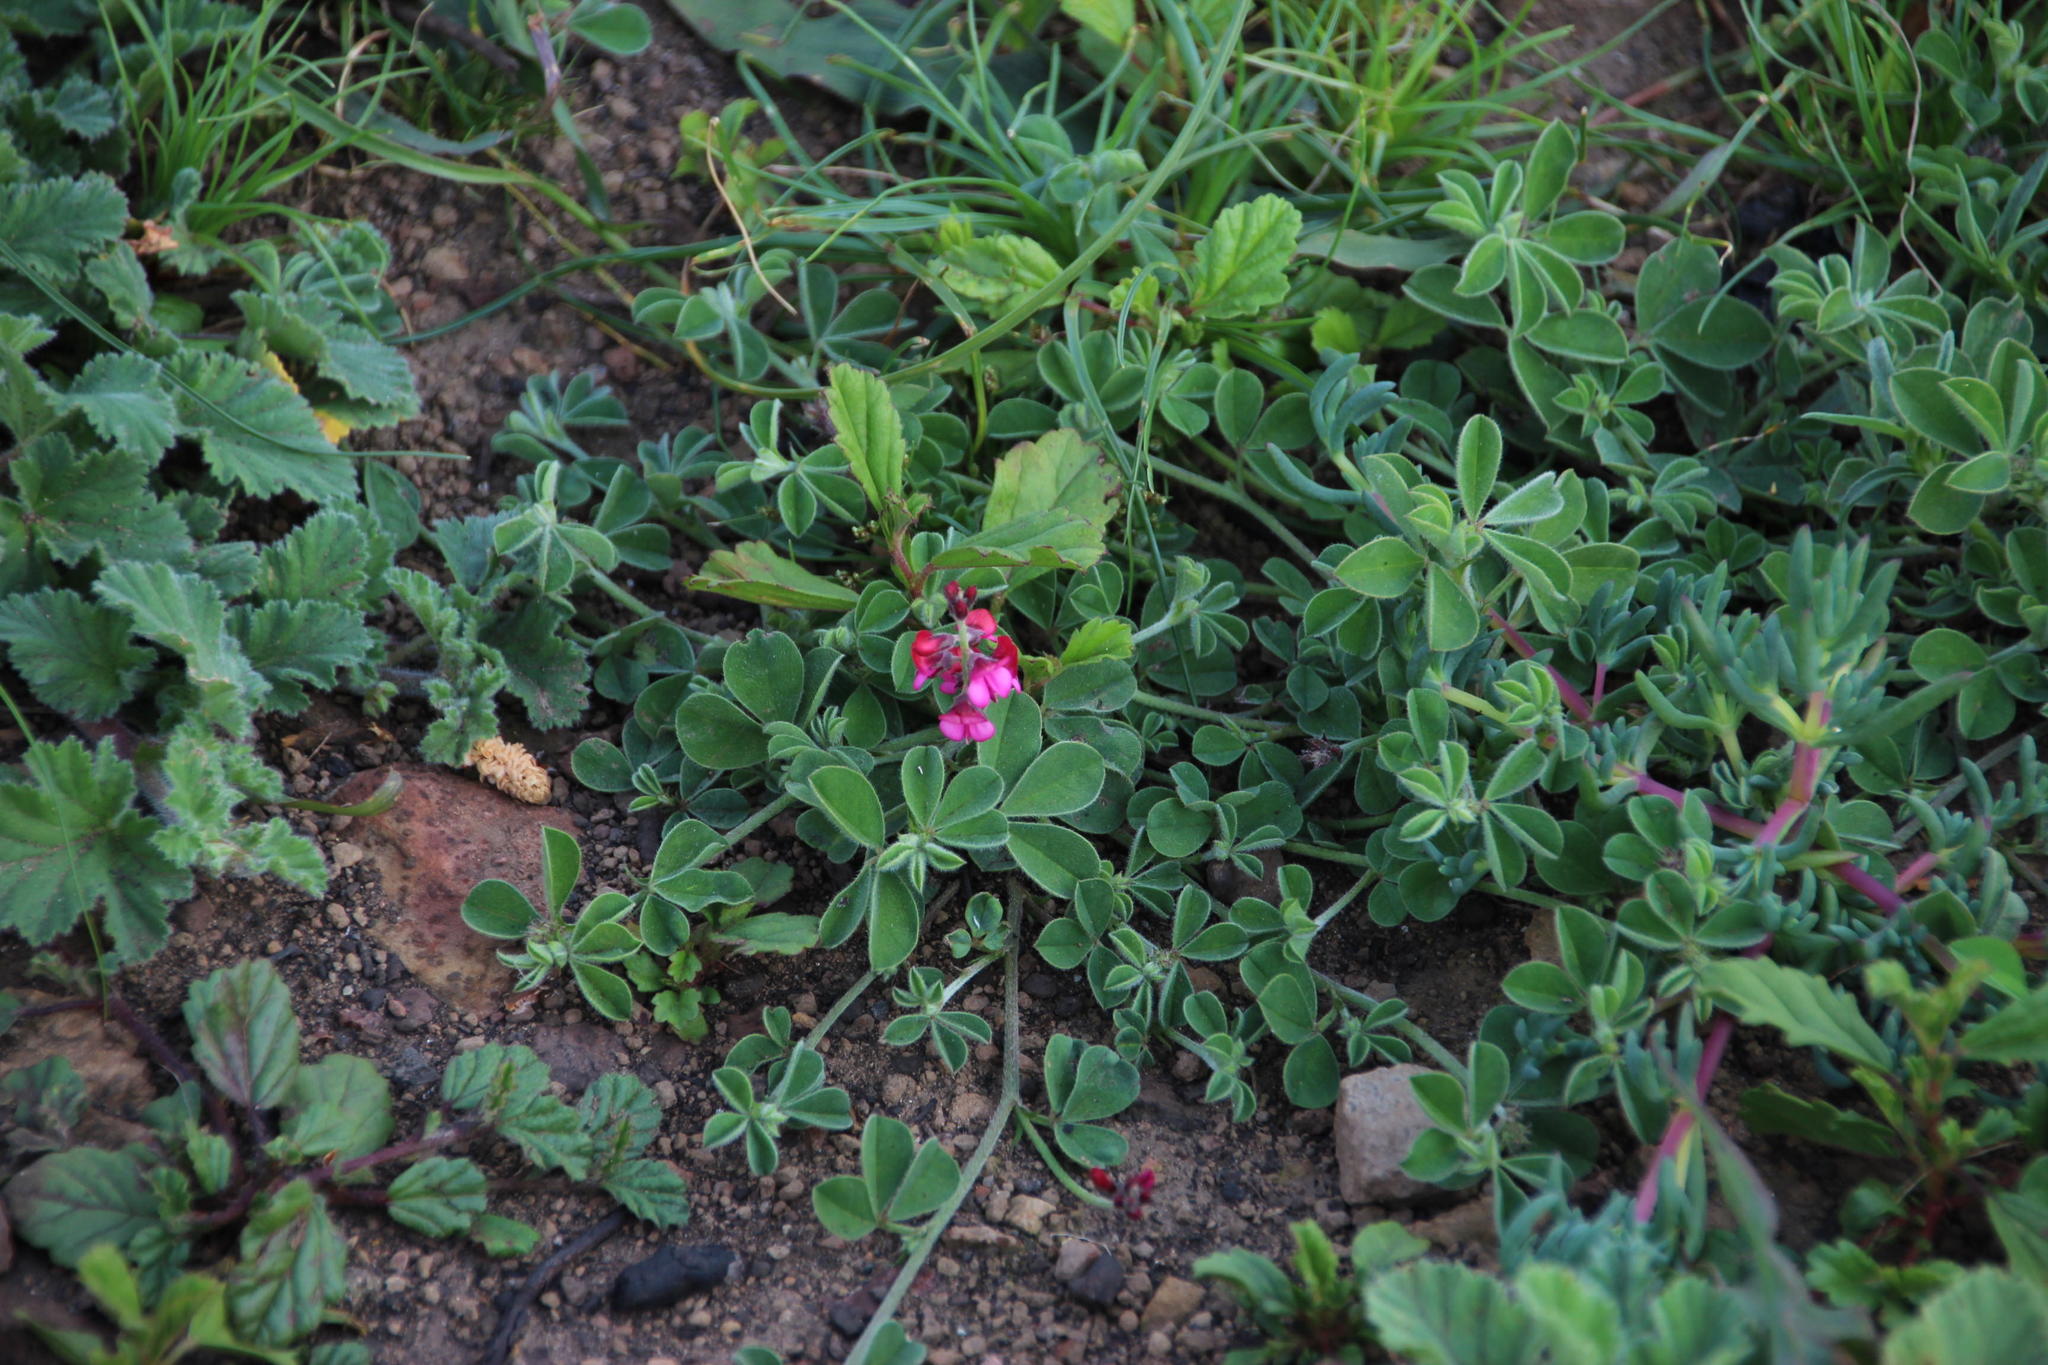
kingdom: Plantae
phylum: Tracheophyta
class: Magnoliopsida
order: Fabales
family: Fabaceae
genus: Indigofera
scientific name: Indigofera incana
